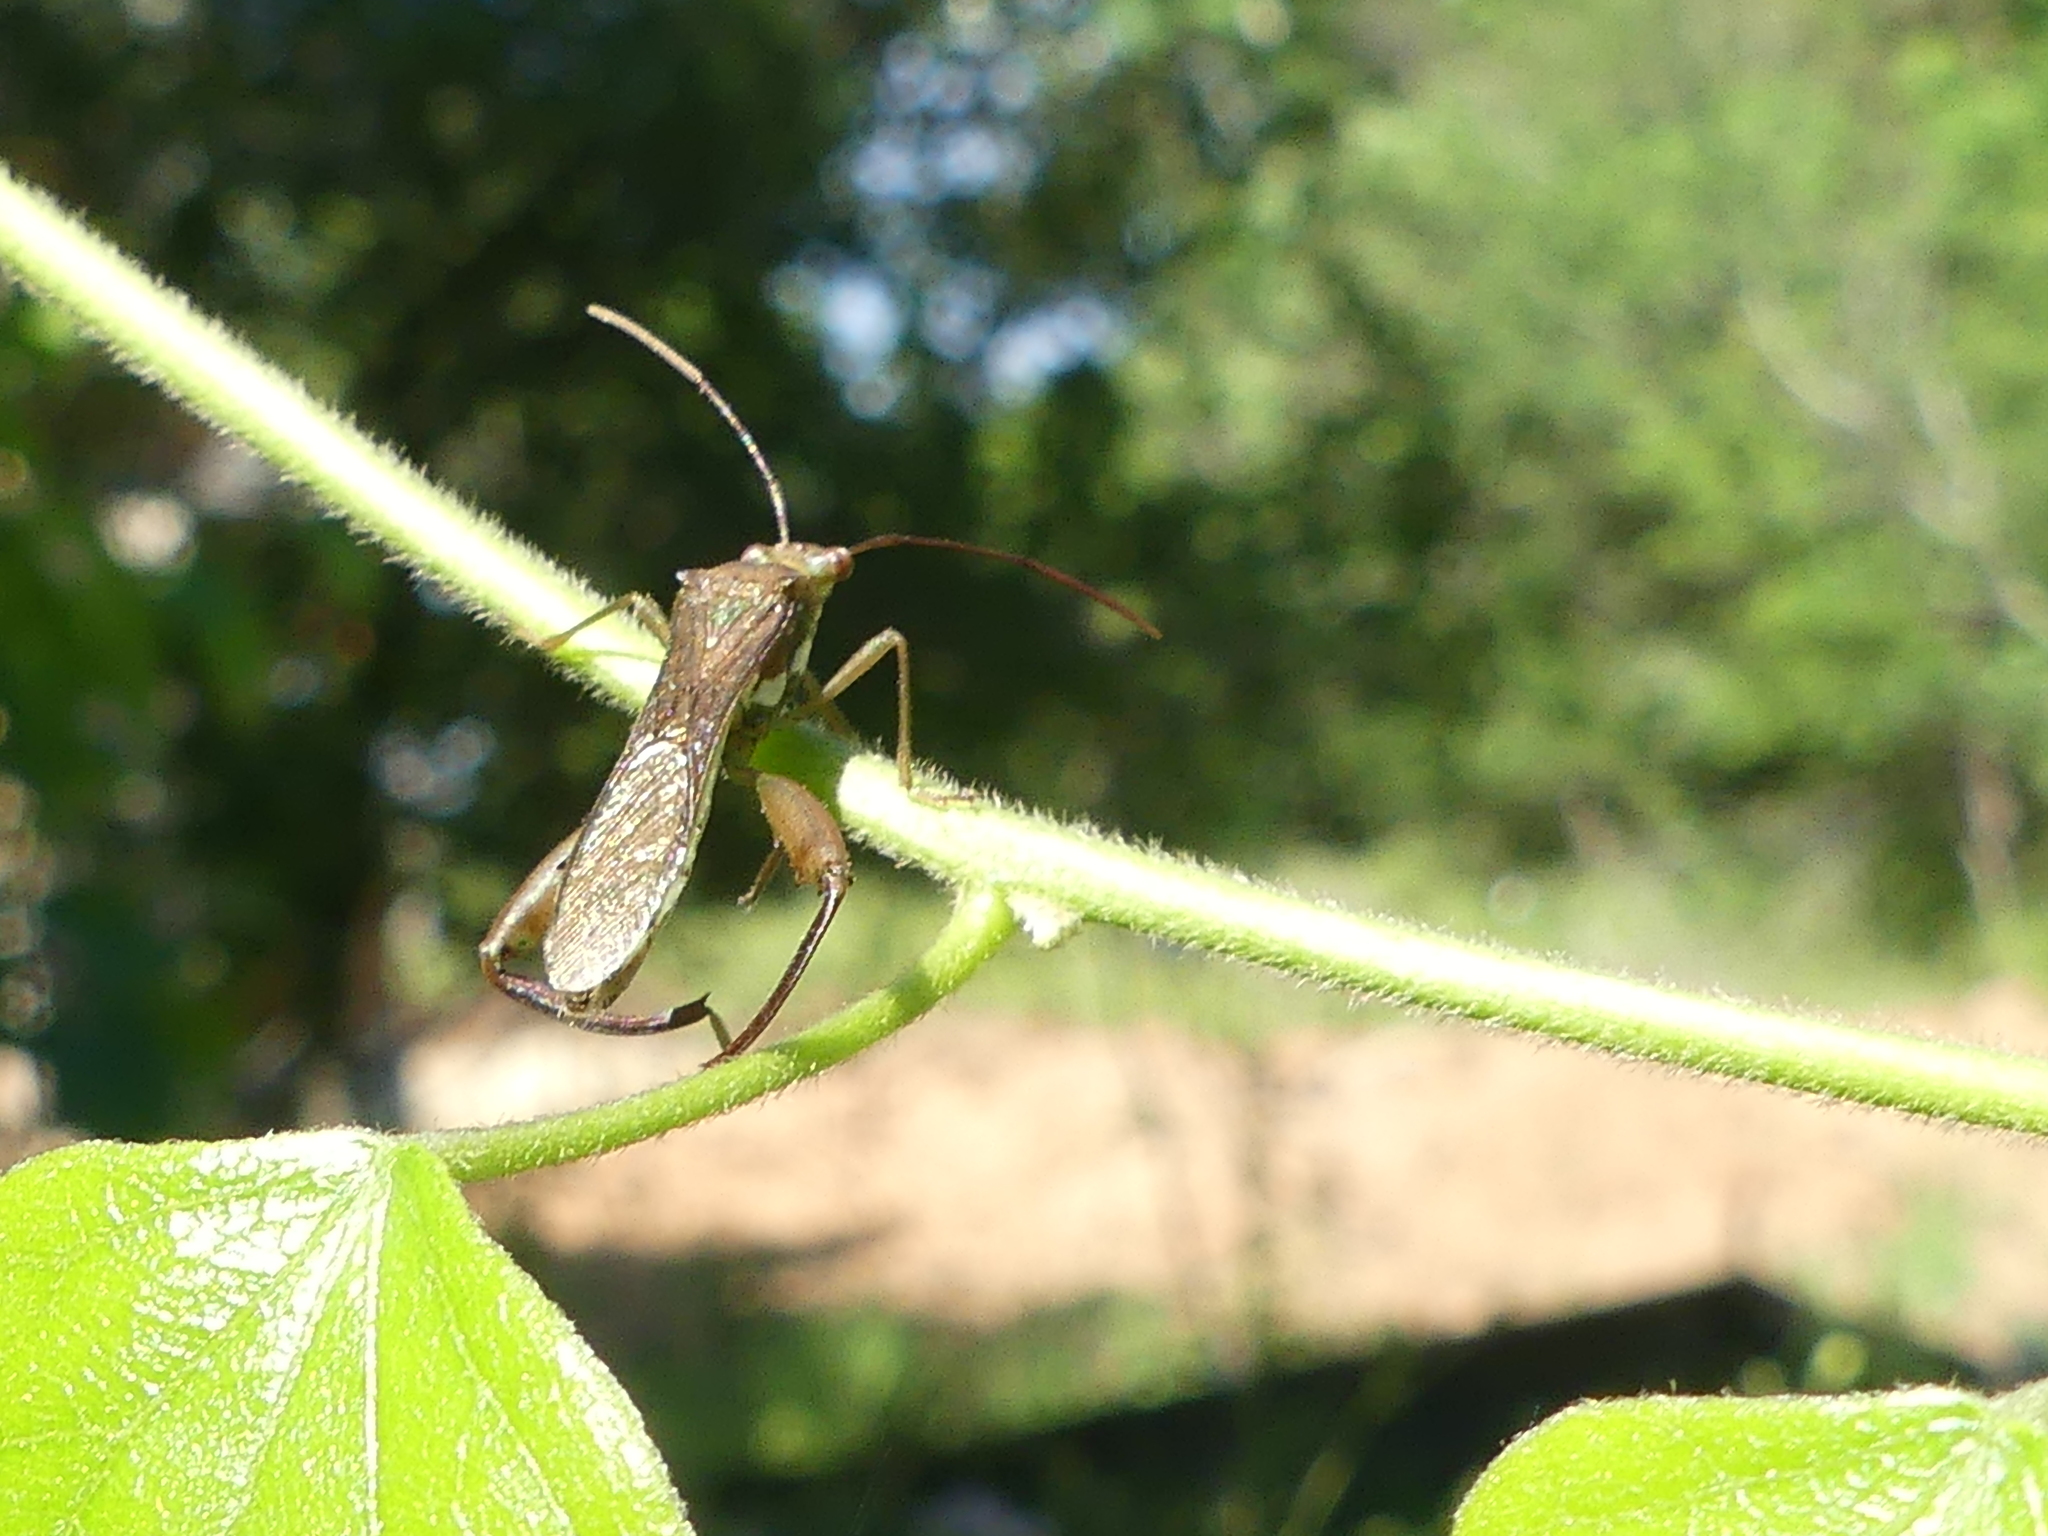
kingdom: Animalia
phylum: Arthropoda
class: Insecta
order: Hemiptera
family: Alydidae
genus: Hyalymenus
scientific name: Hyalymenus tarsatus
